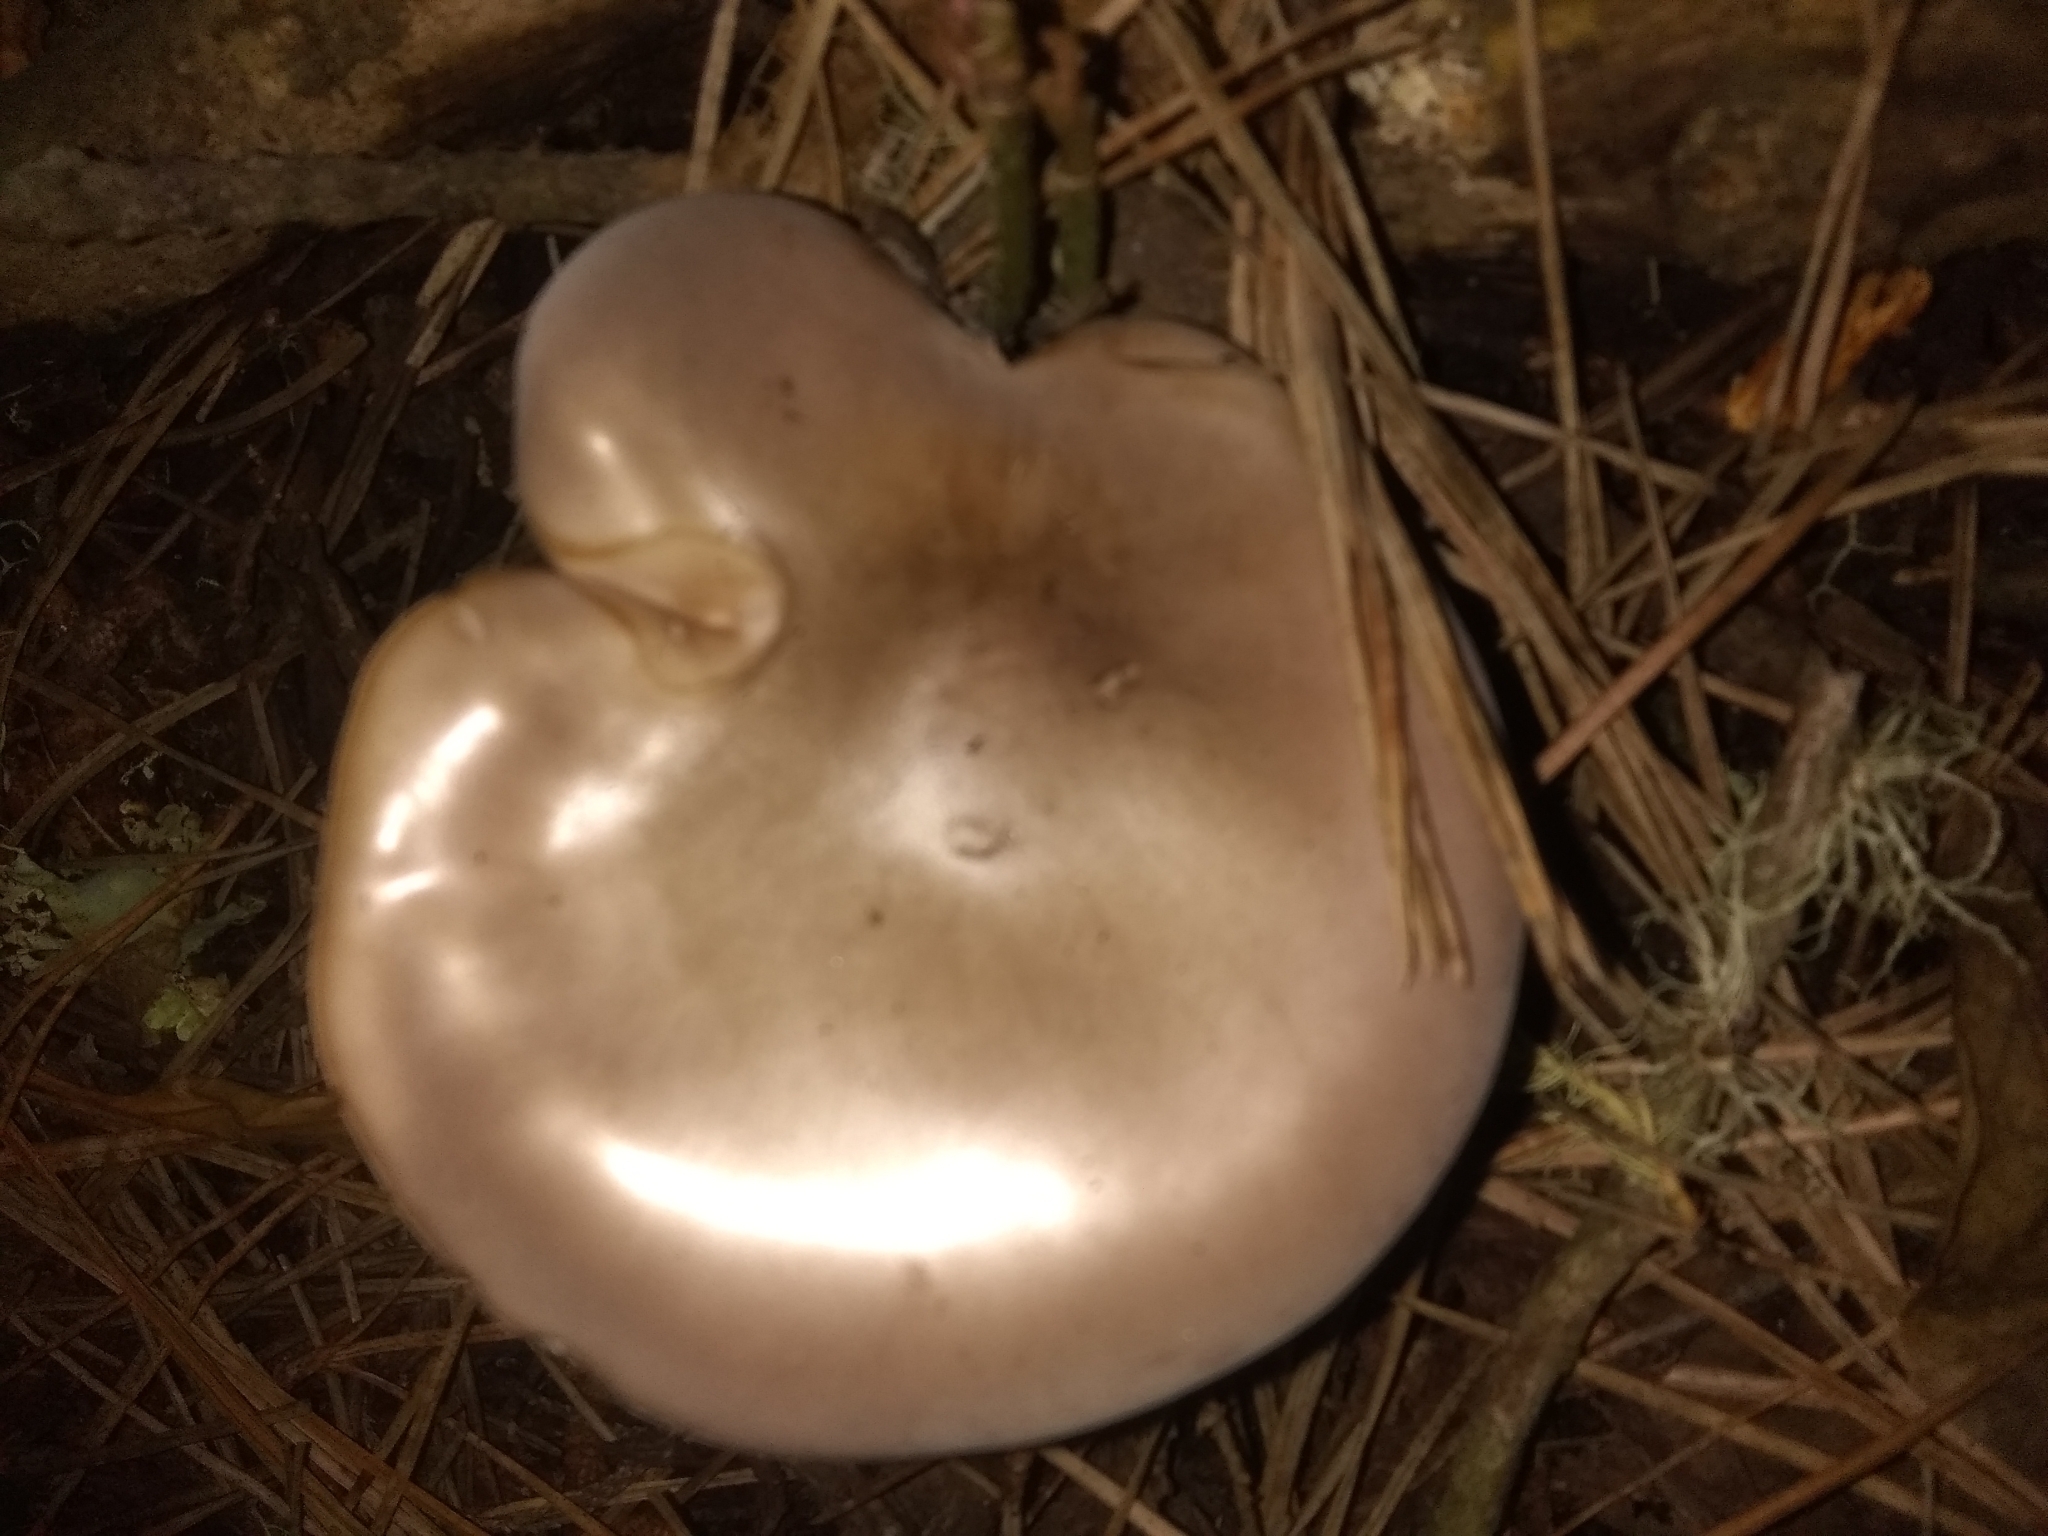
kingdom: Fungi
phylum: Basidiomycota
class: Agaricomycetes
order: Agaricales
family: Tricholomataceae
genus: Collybia
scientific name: Collybia
